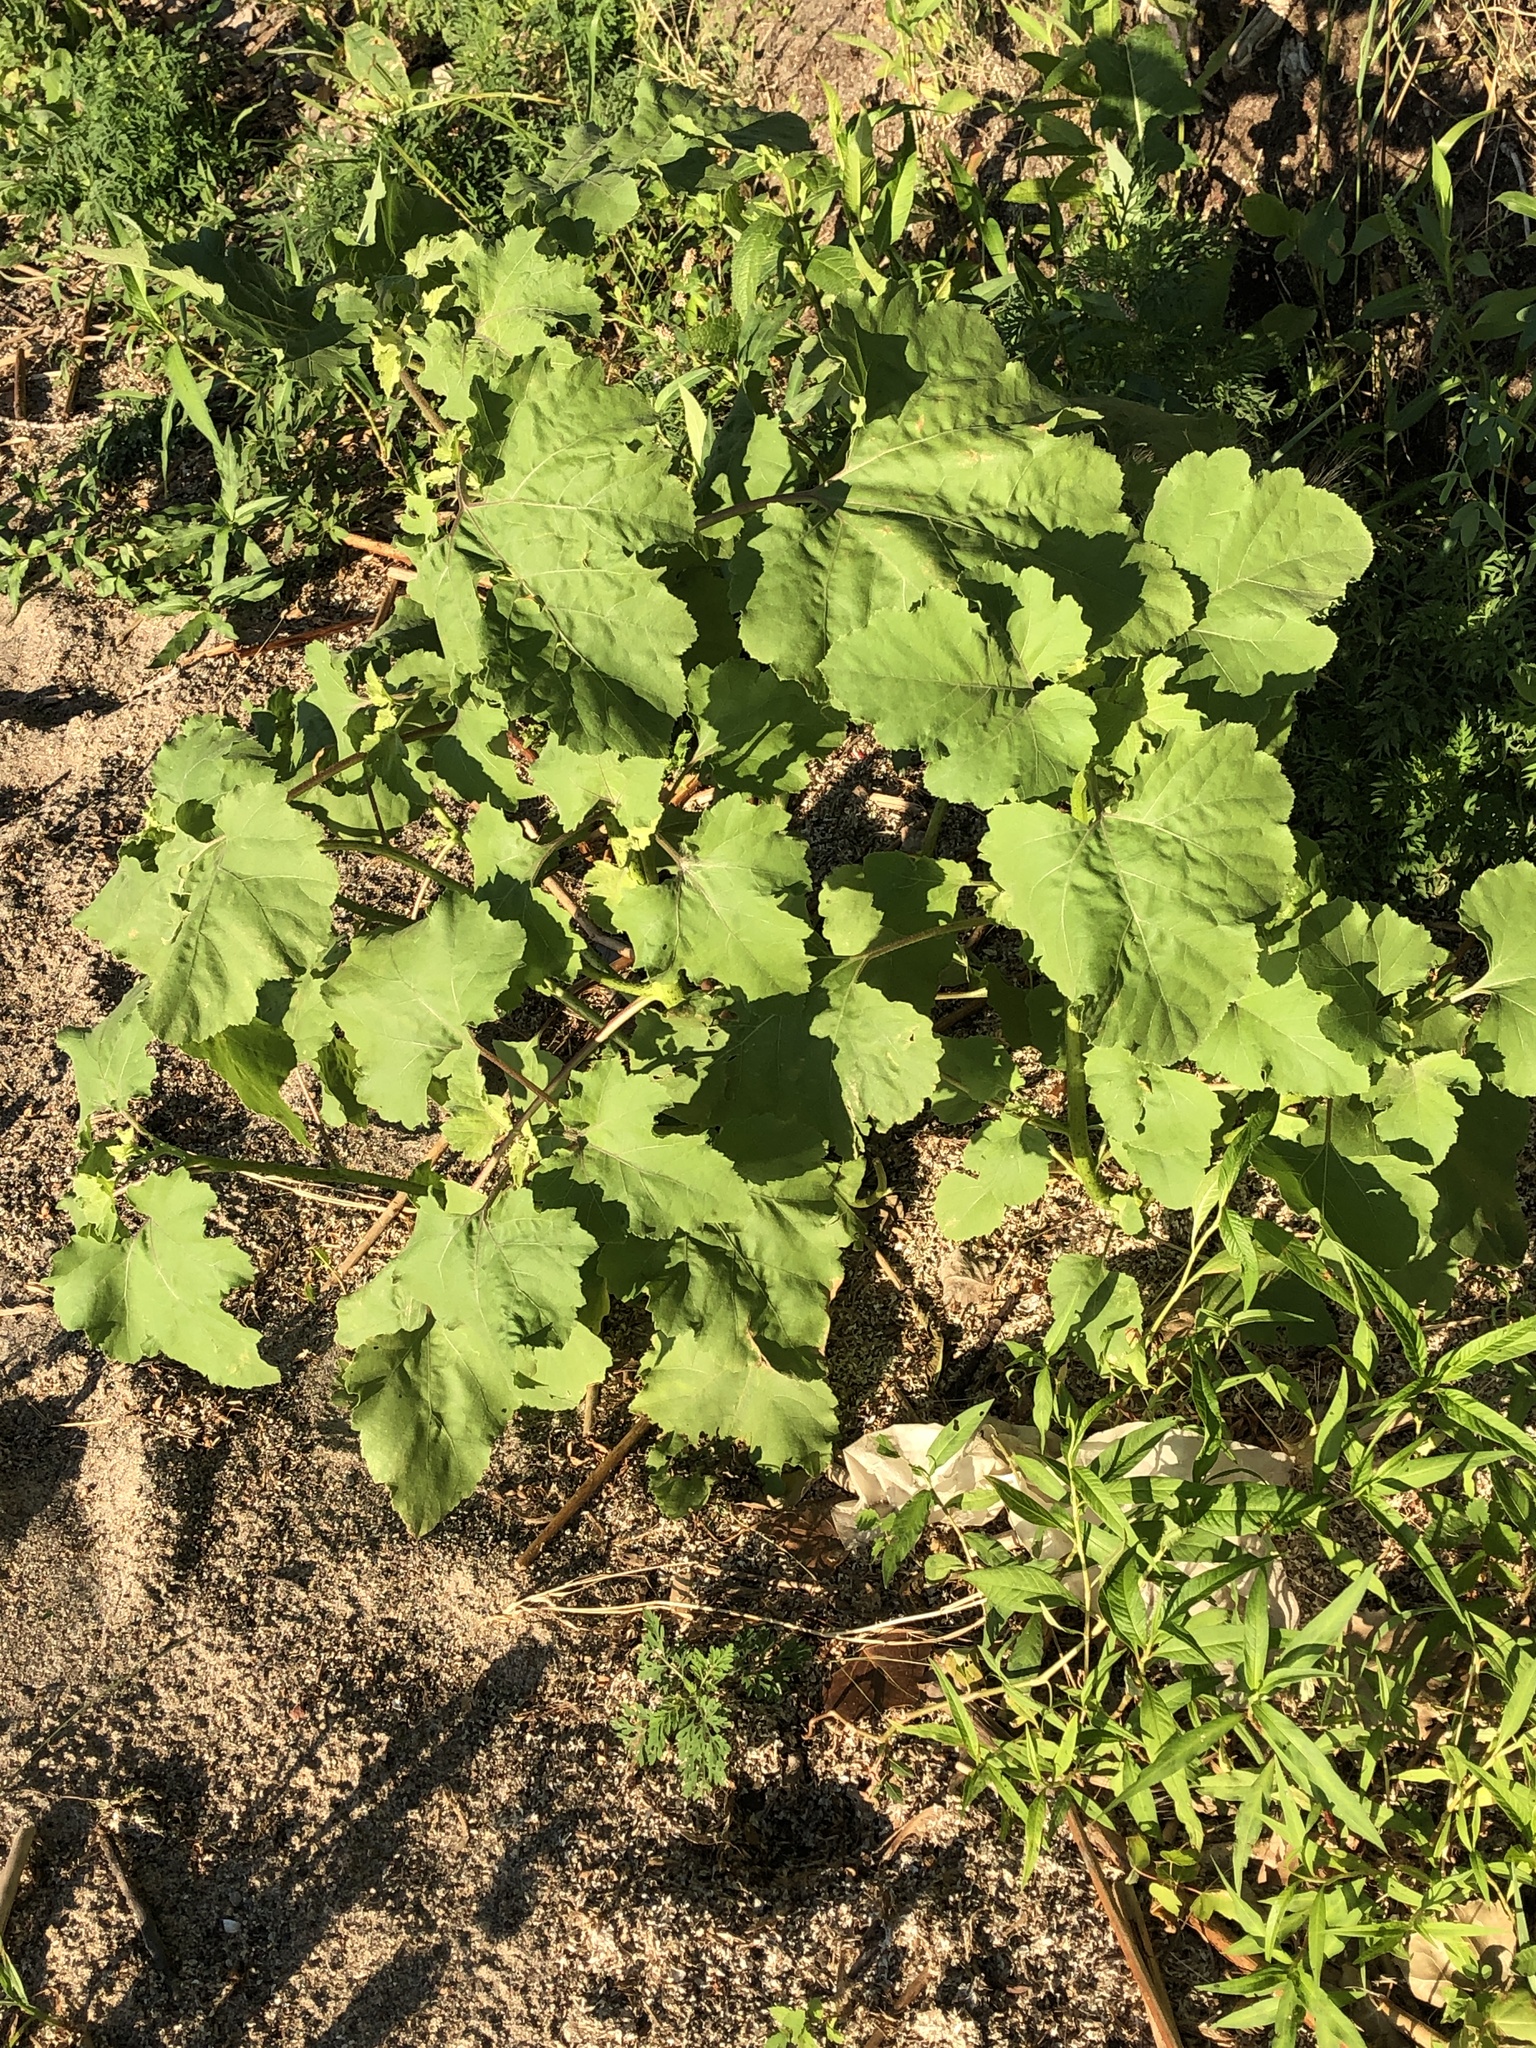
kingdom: Plantae
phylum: Tracheophyta
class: Magnoliopsida
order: Asterales
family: Asteraceae
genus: Xanthium
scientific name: Xanthium strumarium
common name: Rough cocklebur
